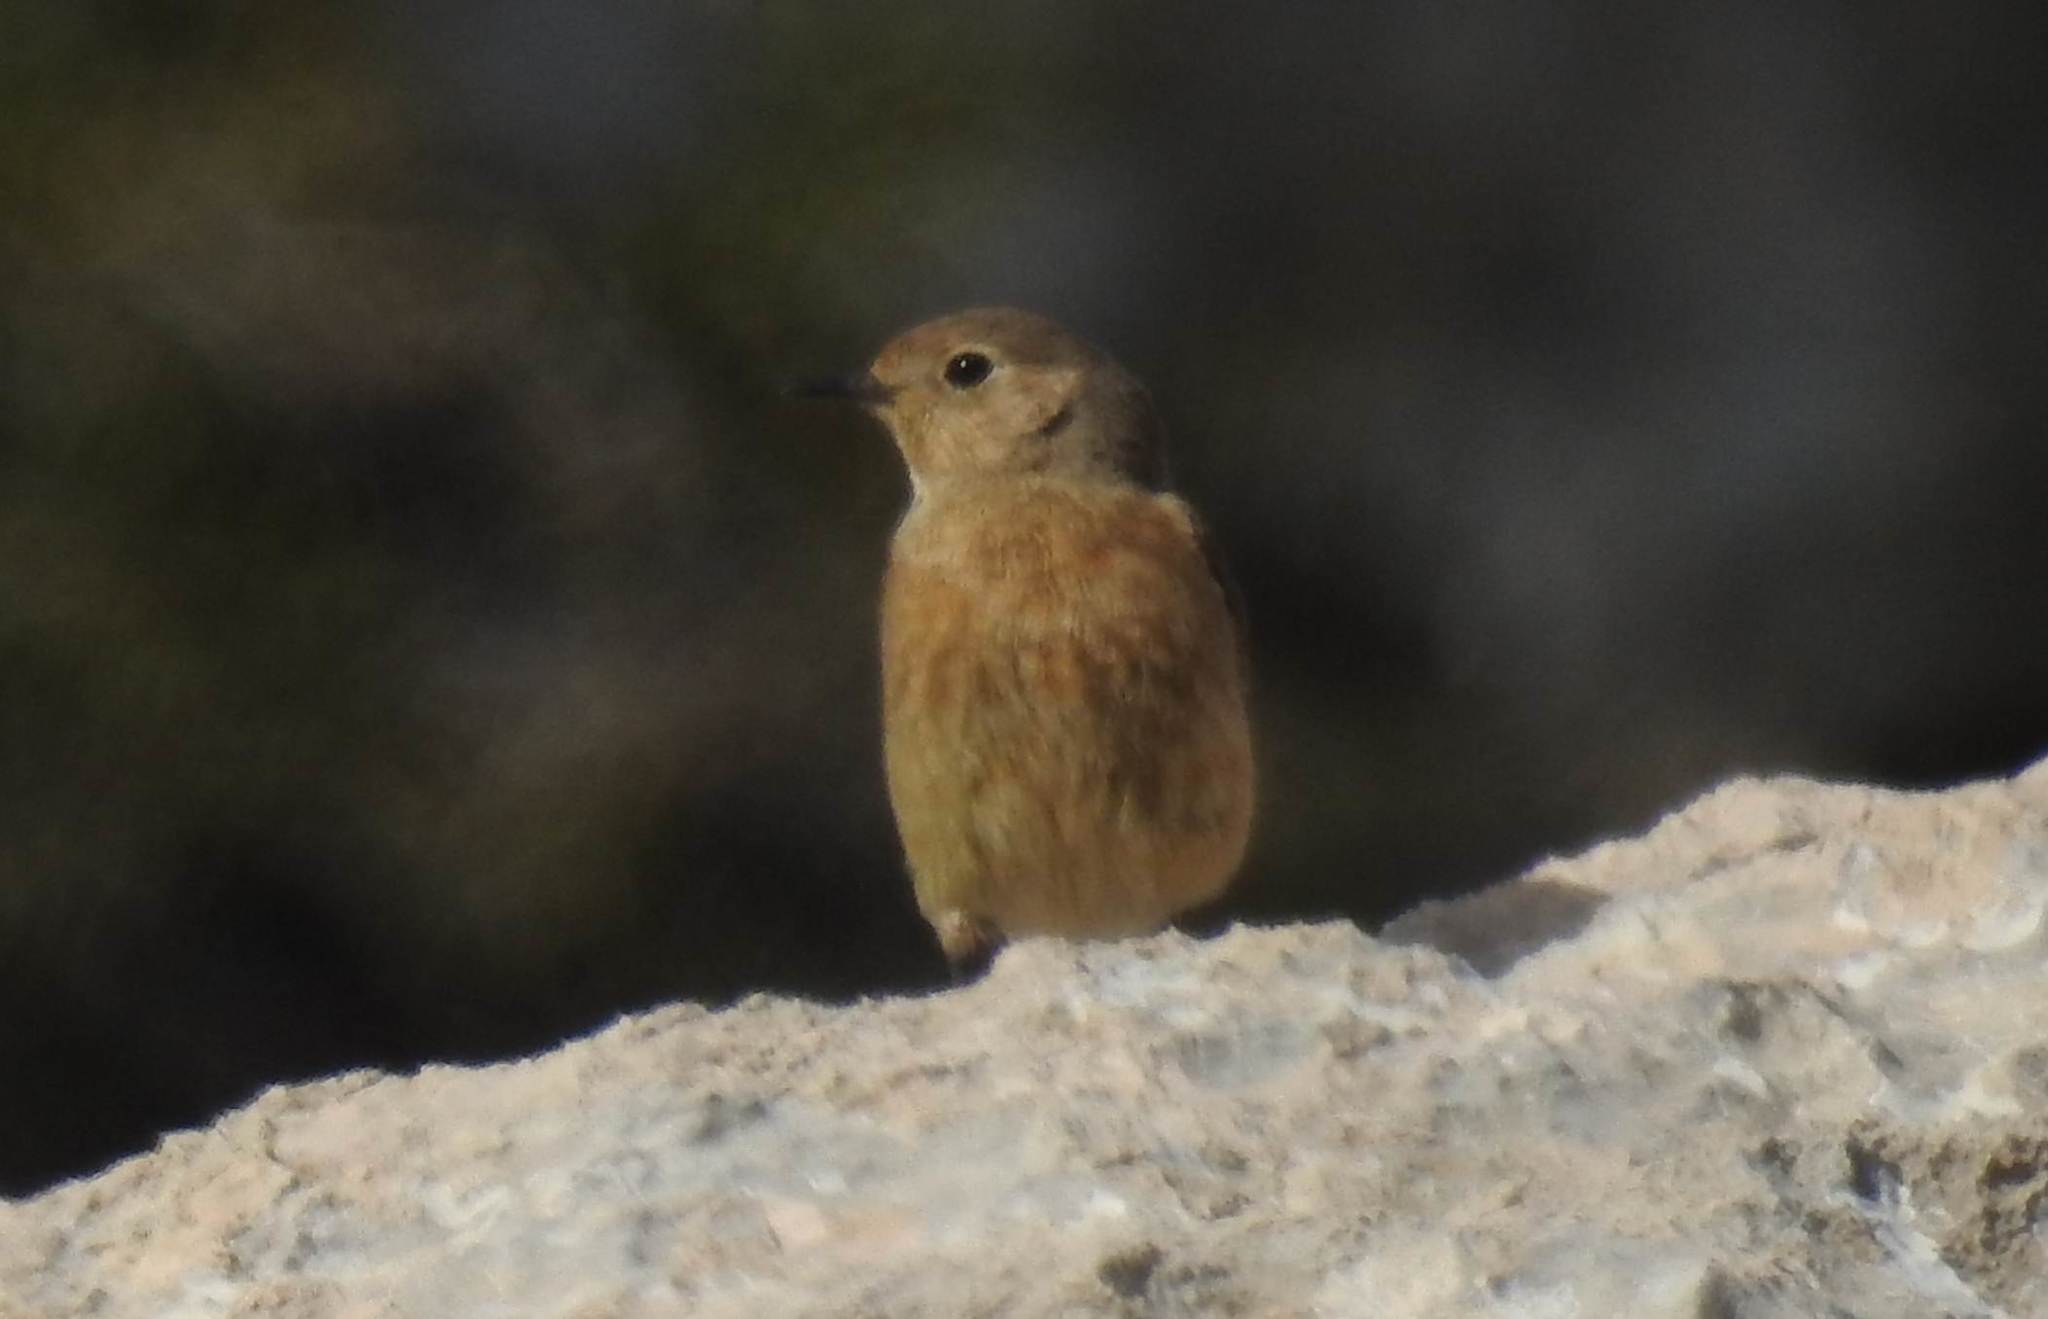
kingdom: Animalia
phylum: Chordata
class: Aves
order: Passeriformes
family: Muscicapidae
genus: Phoenicurus
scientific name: Phoenicurus moussieri
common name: Moussier's redstart
